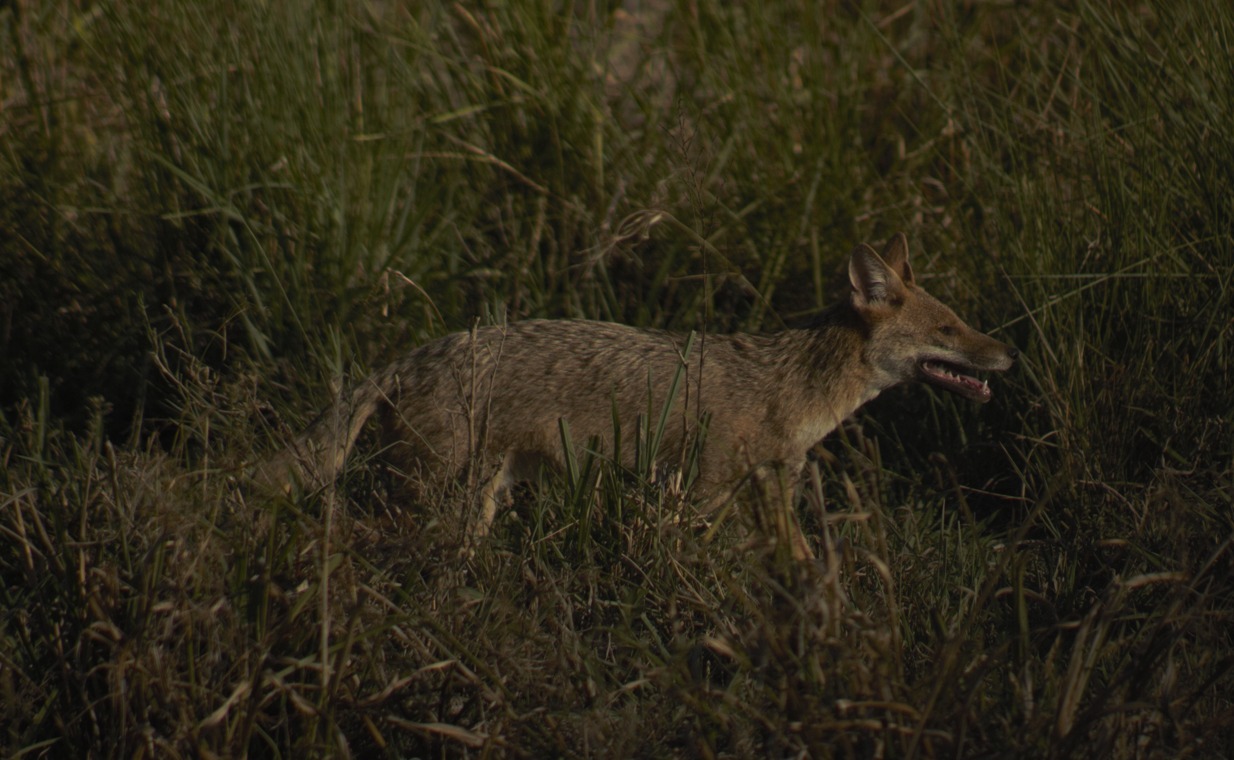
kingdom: Animalia
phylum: Chordata
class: Mammalia
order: Carnivora
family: Canidae
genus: Lycalopex
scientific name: Lycalopex gymnocercus
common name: Pampas fox
